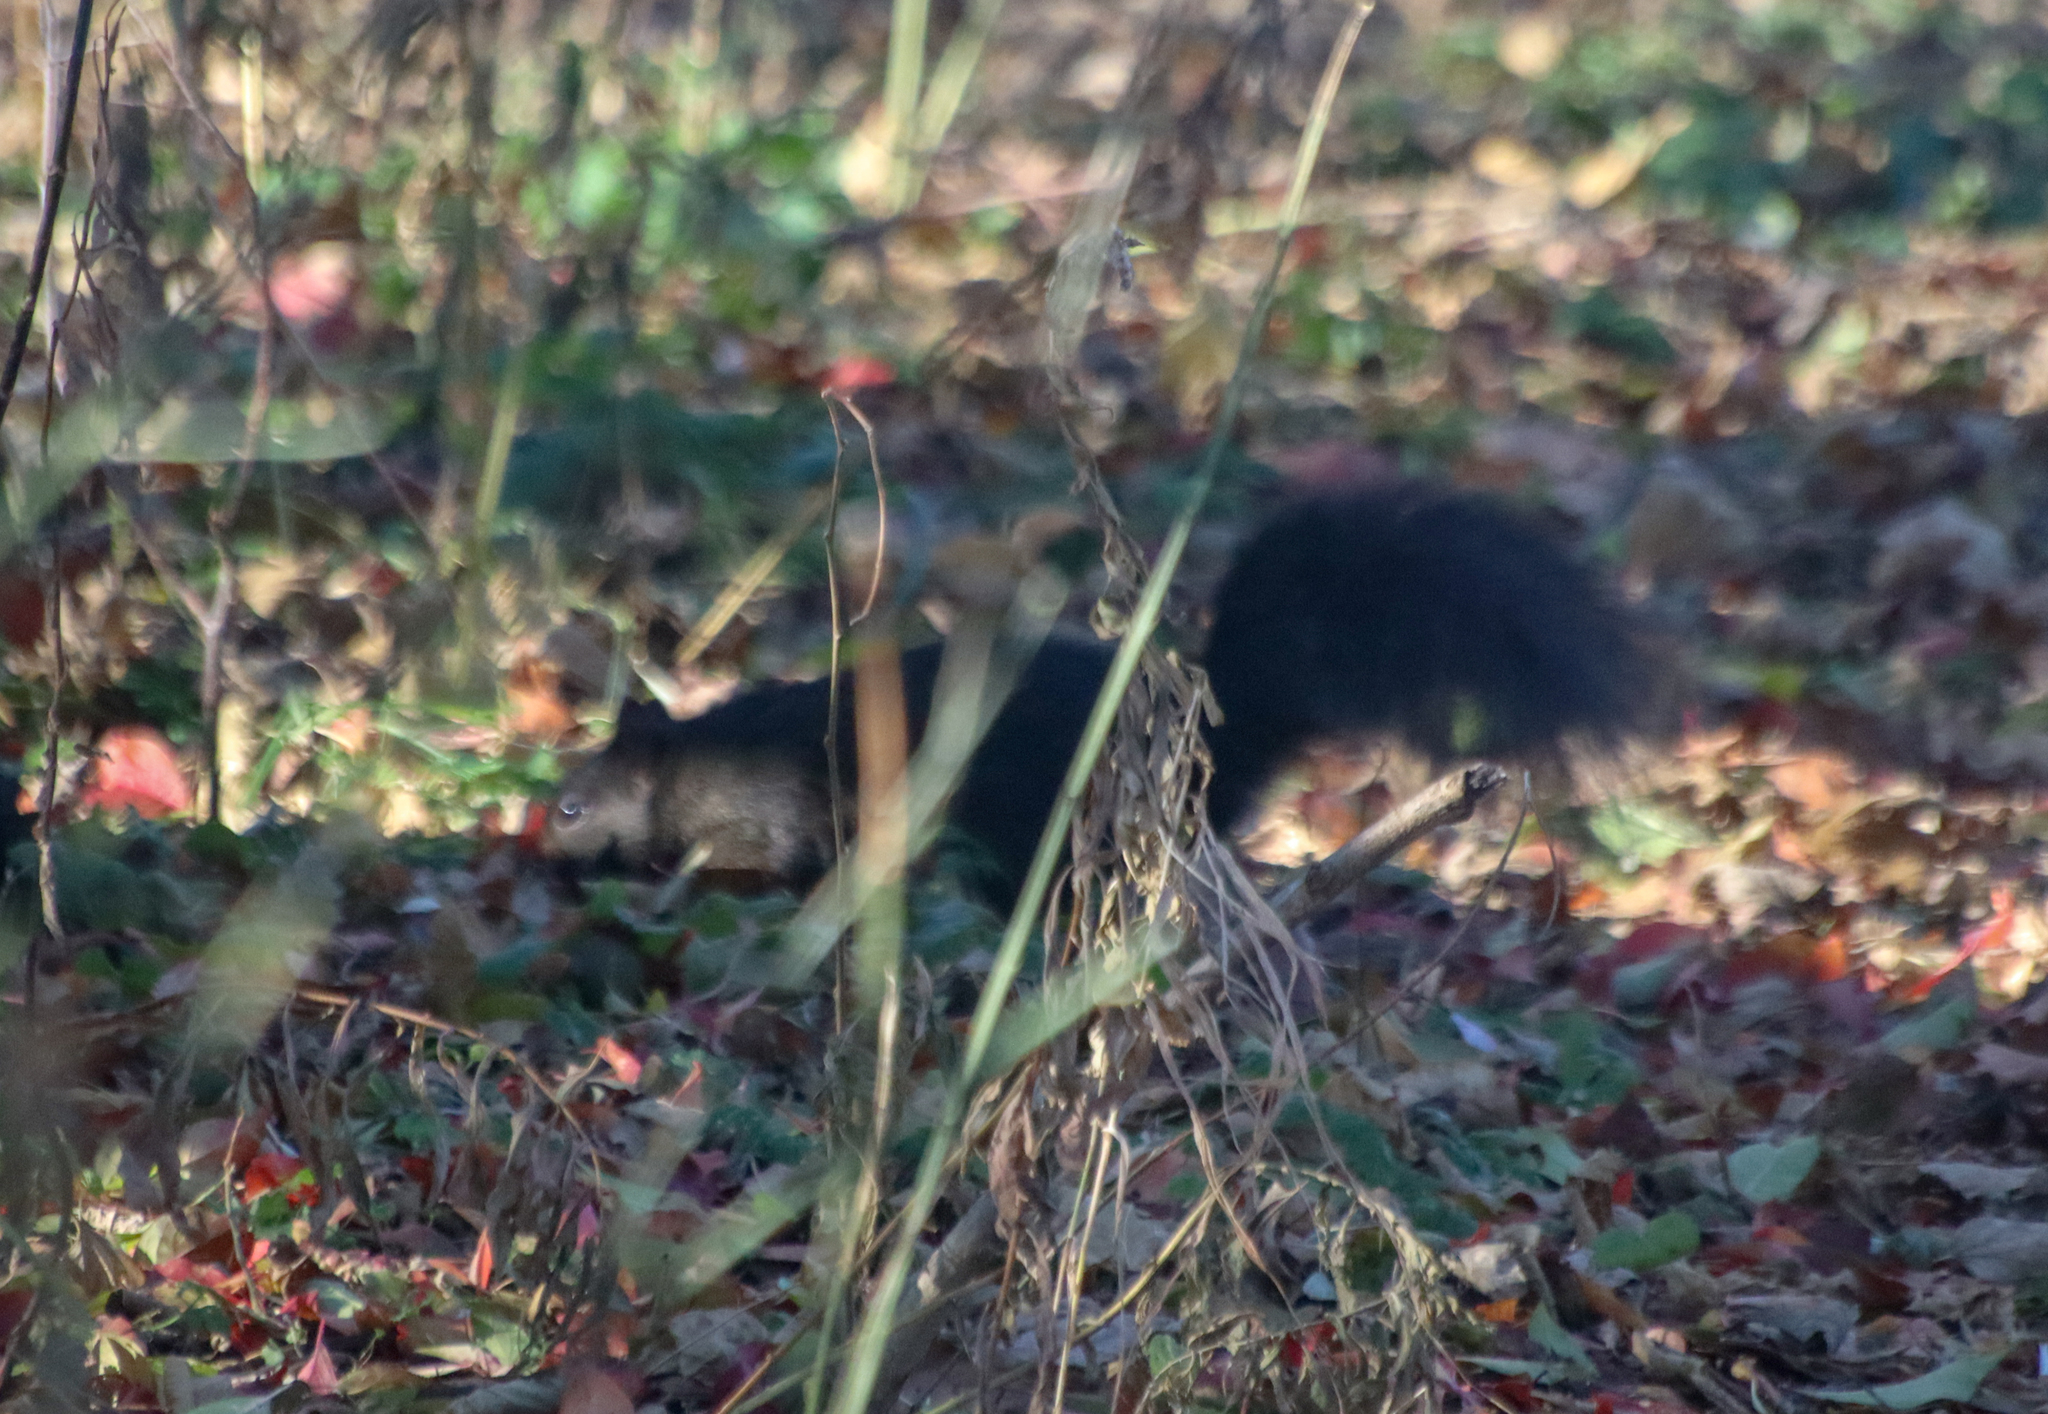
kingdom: Animalia
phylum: Chordata
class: Mammalia
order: Rodentia
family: Sciuridae
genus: Sciurus
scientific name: Sciurus carolinensis
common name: Eastern gray squirrel
